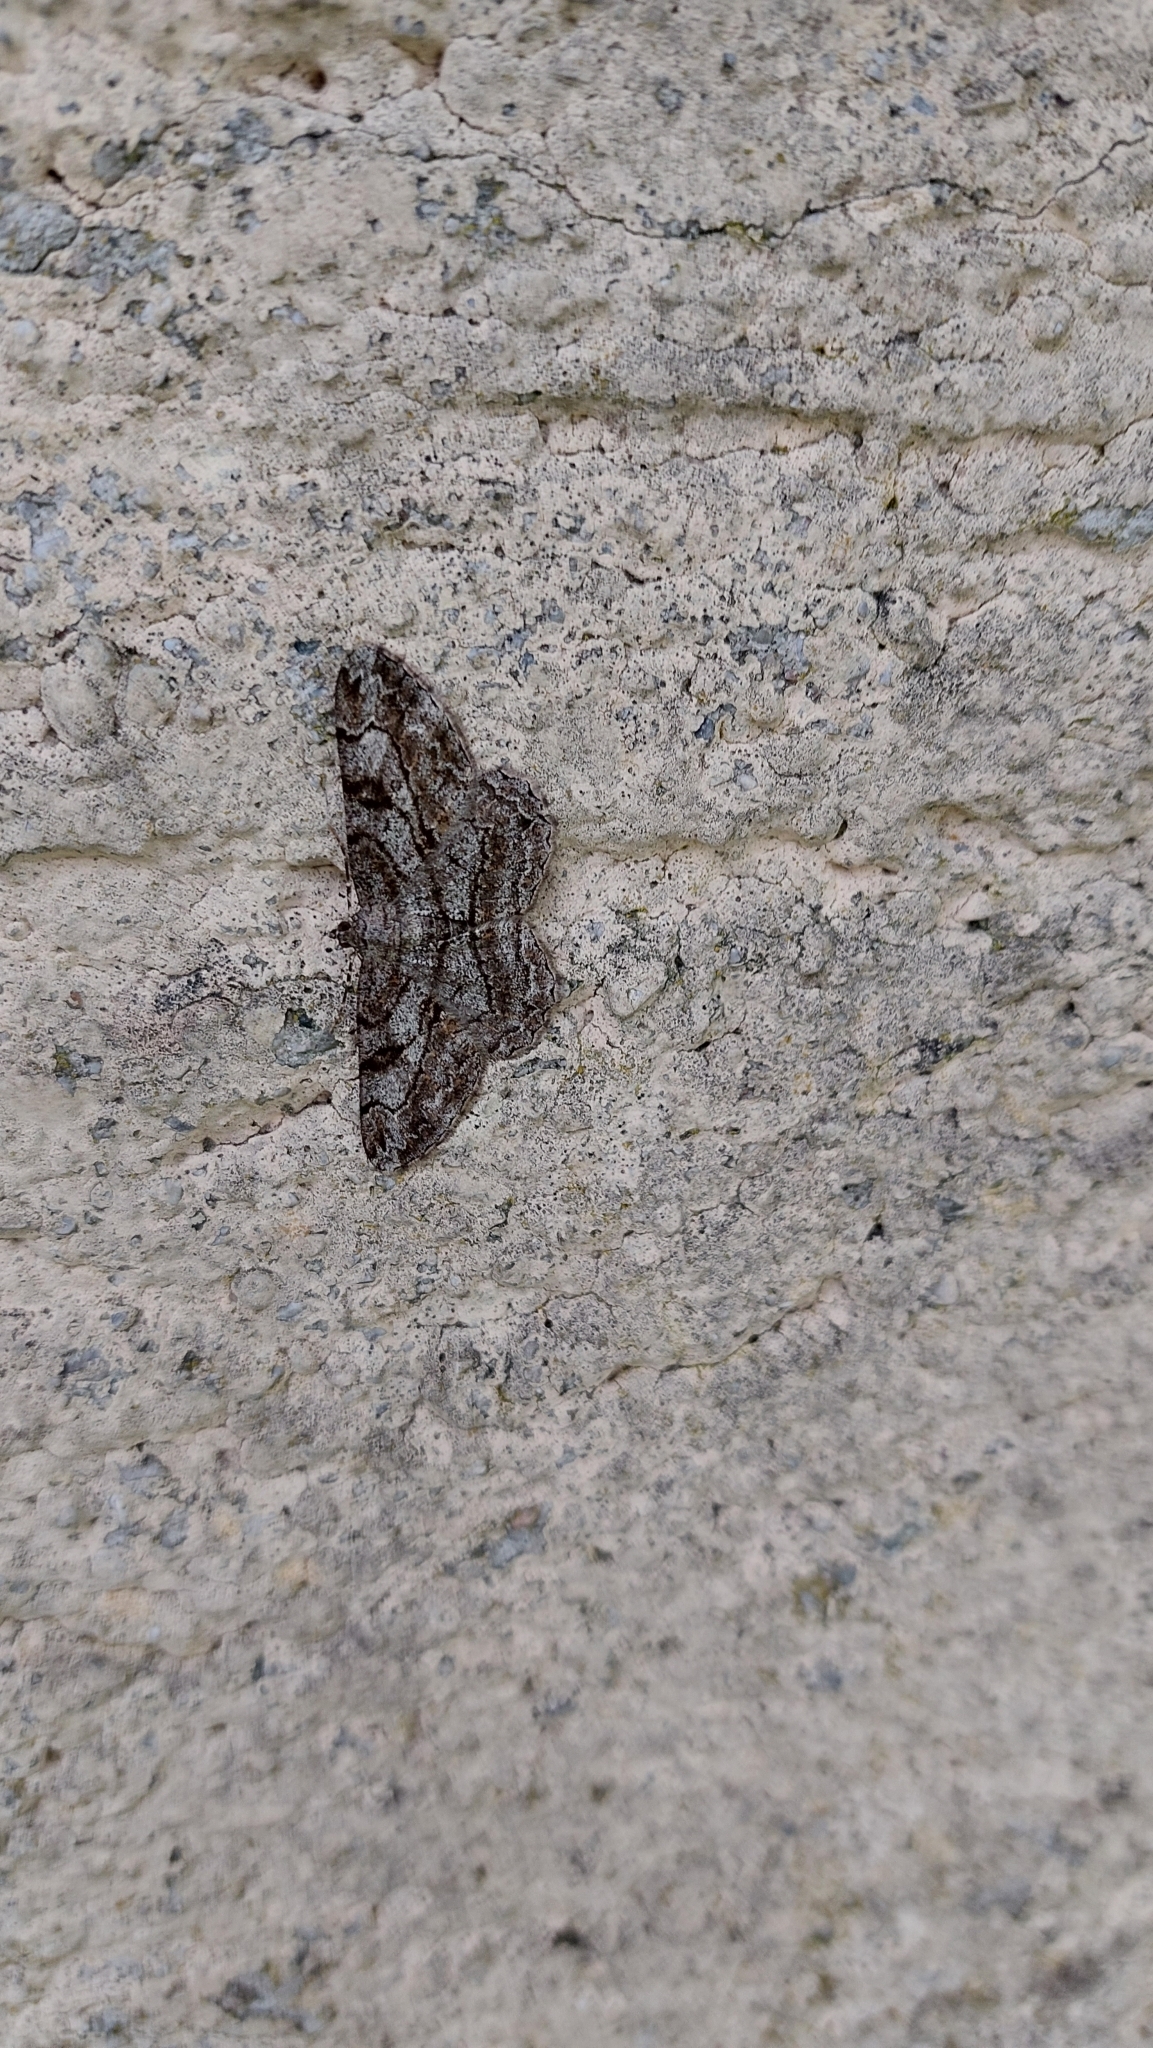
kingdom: Animalia
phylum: Arthropoda
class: Insecta
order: Lepidoptera
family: Geometridae
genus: Peribatodes
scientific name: Peribatodes rhomboidaria
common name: Willow beauty
